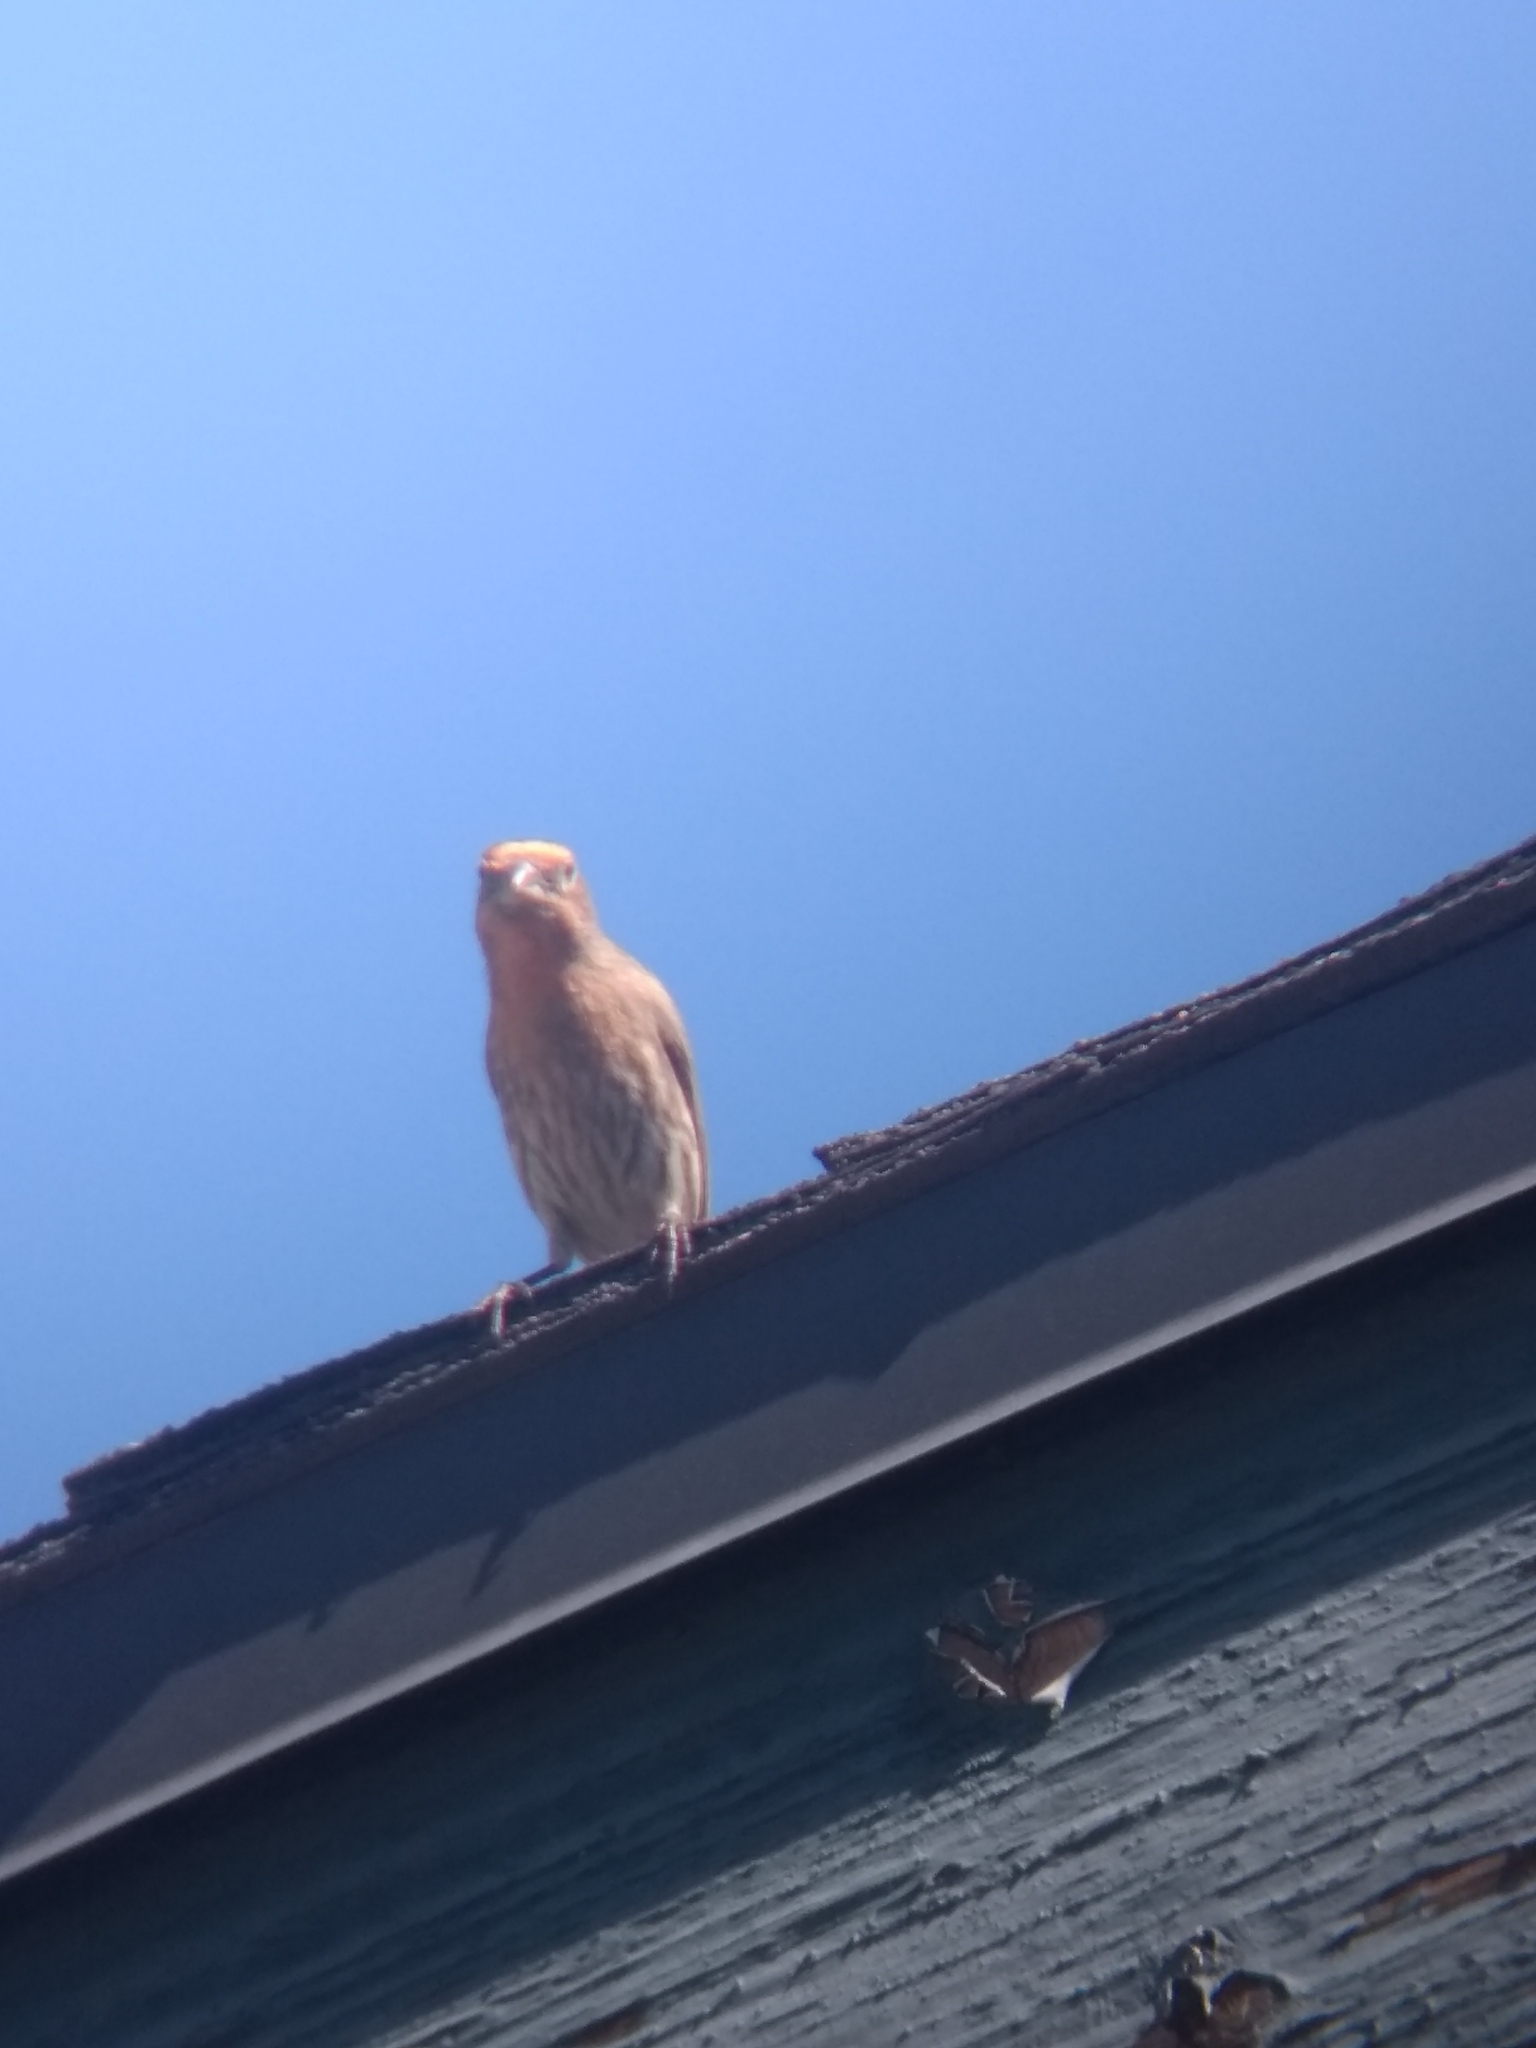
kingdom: Animalia
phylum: Chordata
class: Aves
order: Passeriformes
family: Fringillidae
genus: Haemorhous
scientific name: Haemorhous mexicanus
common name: House finch
